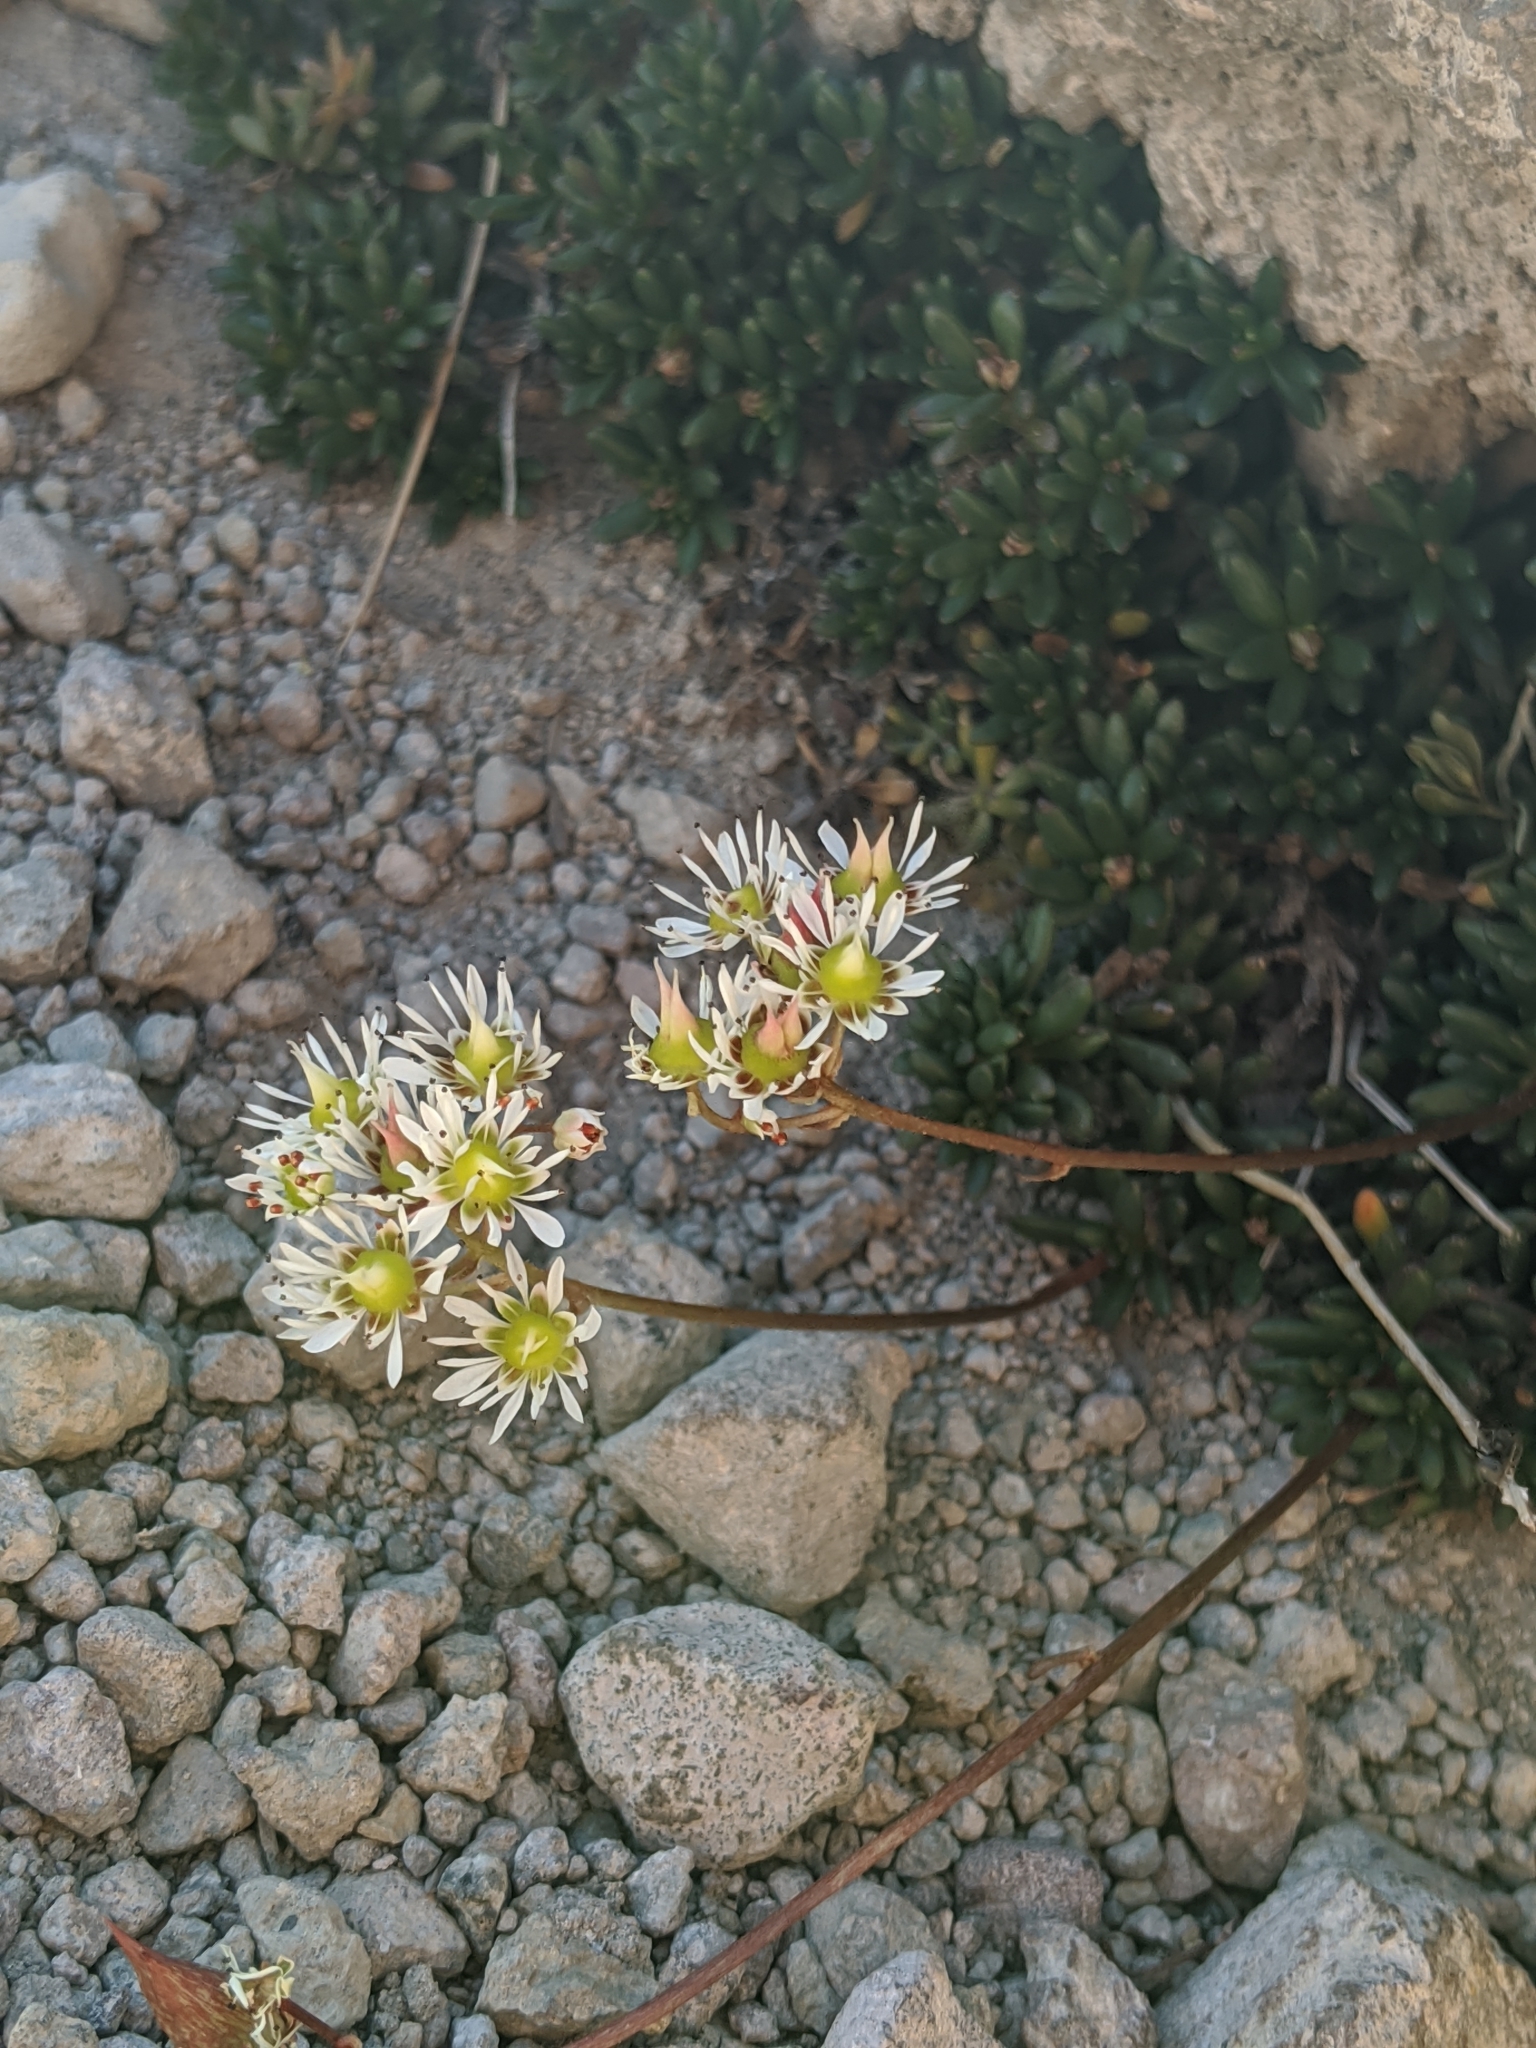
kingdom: Plantae
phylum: Tracheophyta
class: Magnoliopsida
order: Saxifragales
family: Saxifragaceae
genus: Micranthes
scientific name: Micranthes tolmiei
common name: Tolmie's saxifrage
